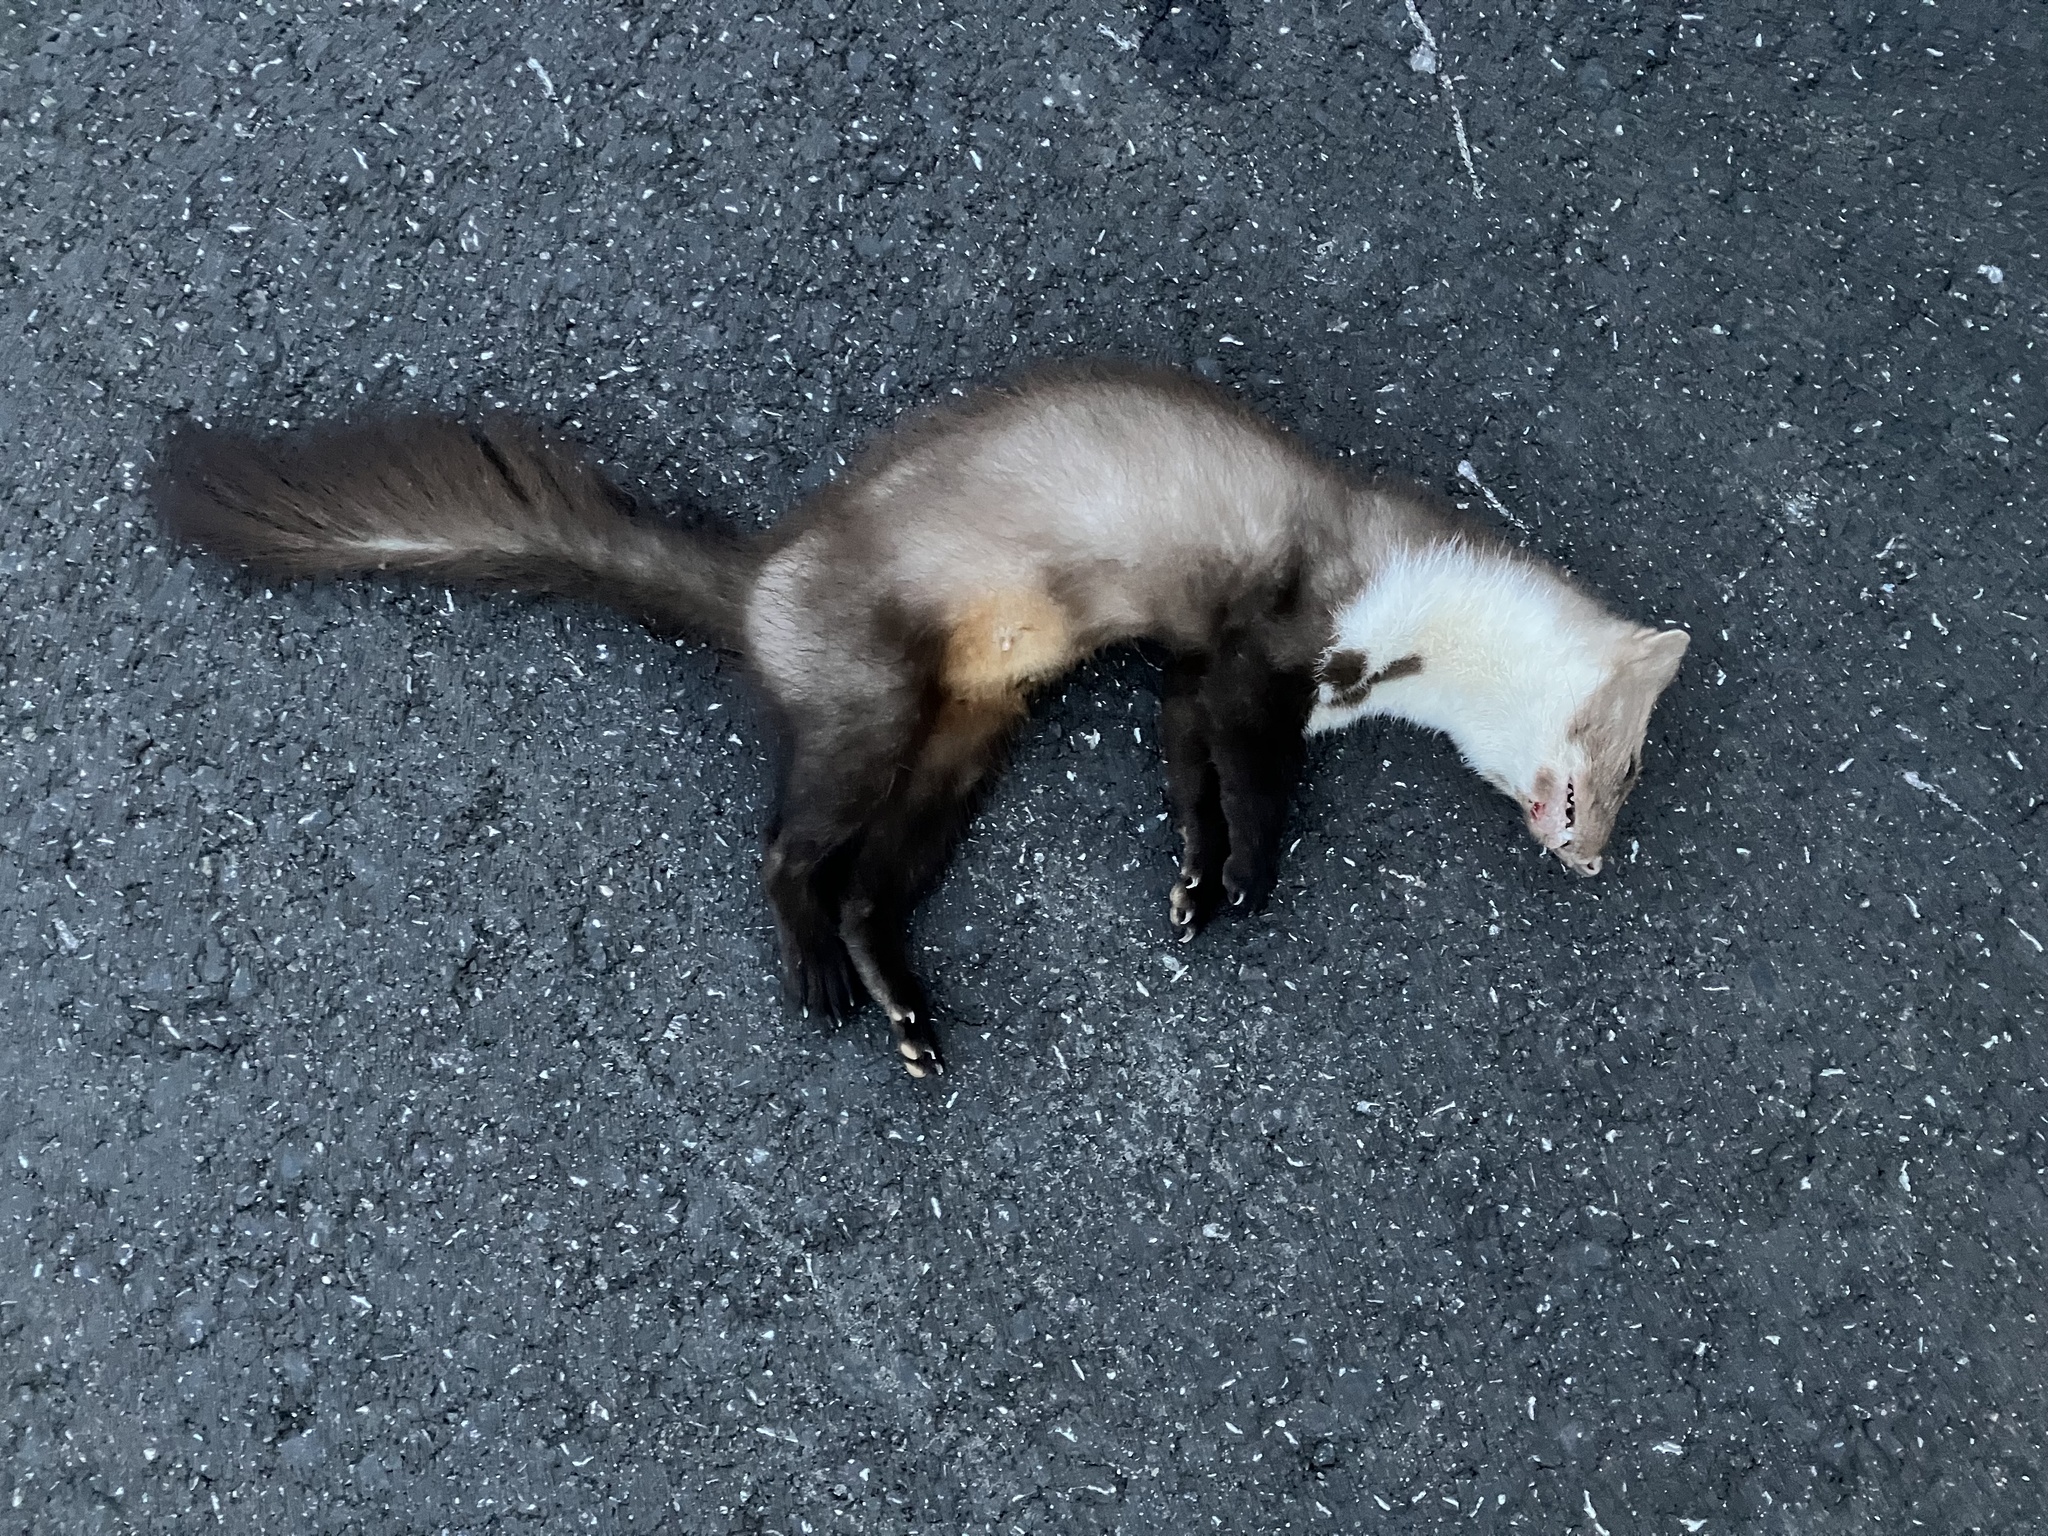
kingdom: Animalia
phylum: Chordata
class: Mammalia
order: Carnivora
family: Mustelidae
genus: Martes
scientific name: Martes foina
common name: Beech marten
